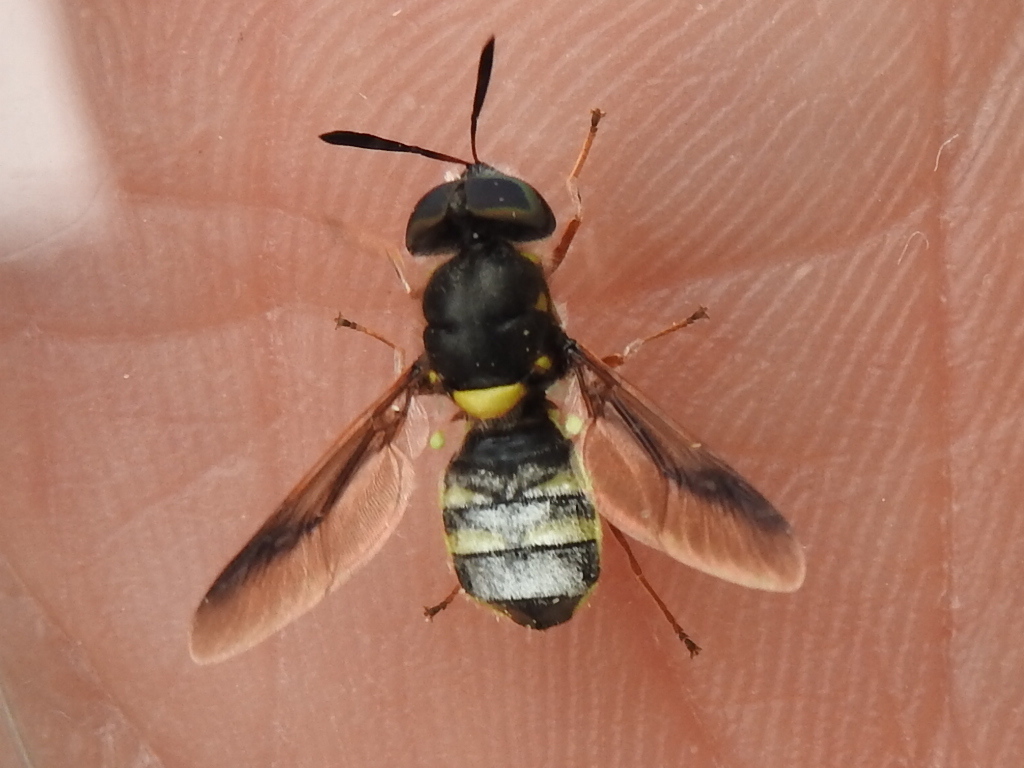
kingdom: Animalia
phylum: Arthropoda
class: Insecta
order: Diptera
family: Stratiomyidae
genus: Hoplitimyia
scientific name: Hoplitimyia constans
